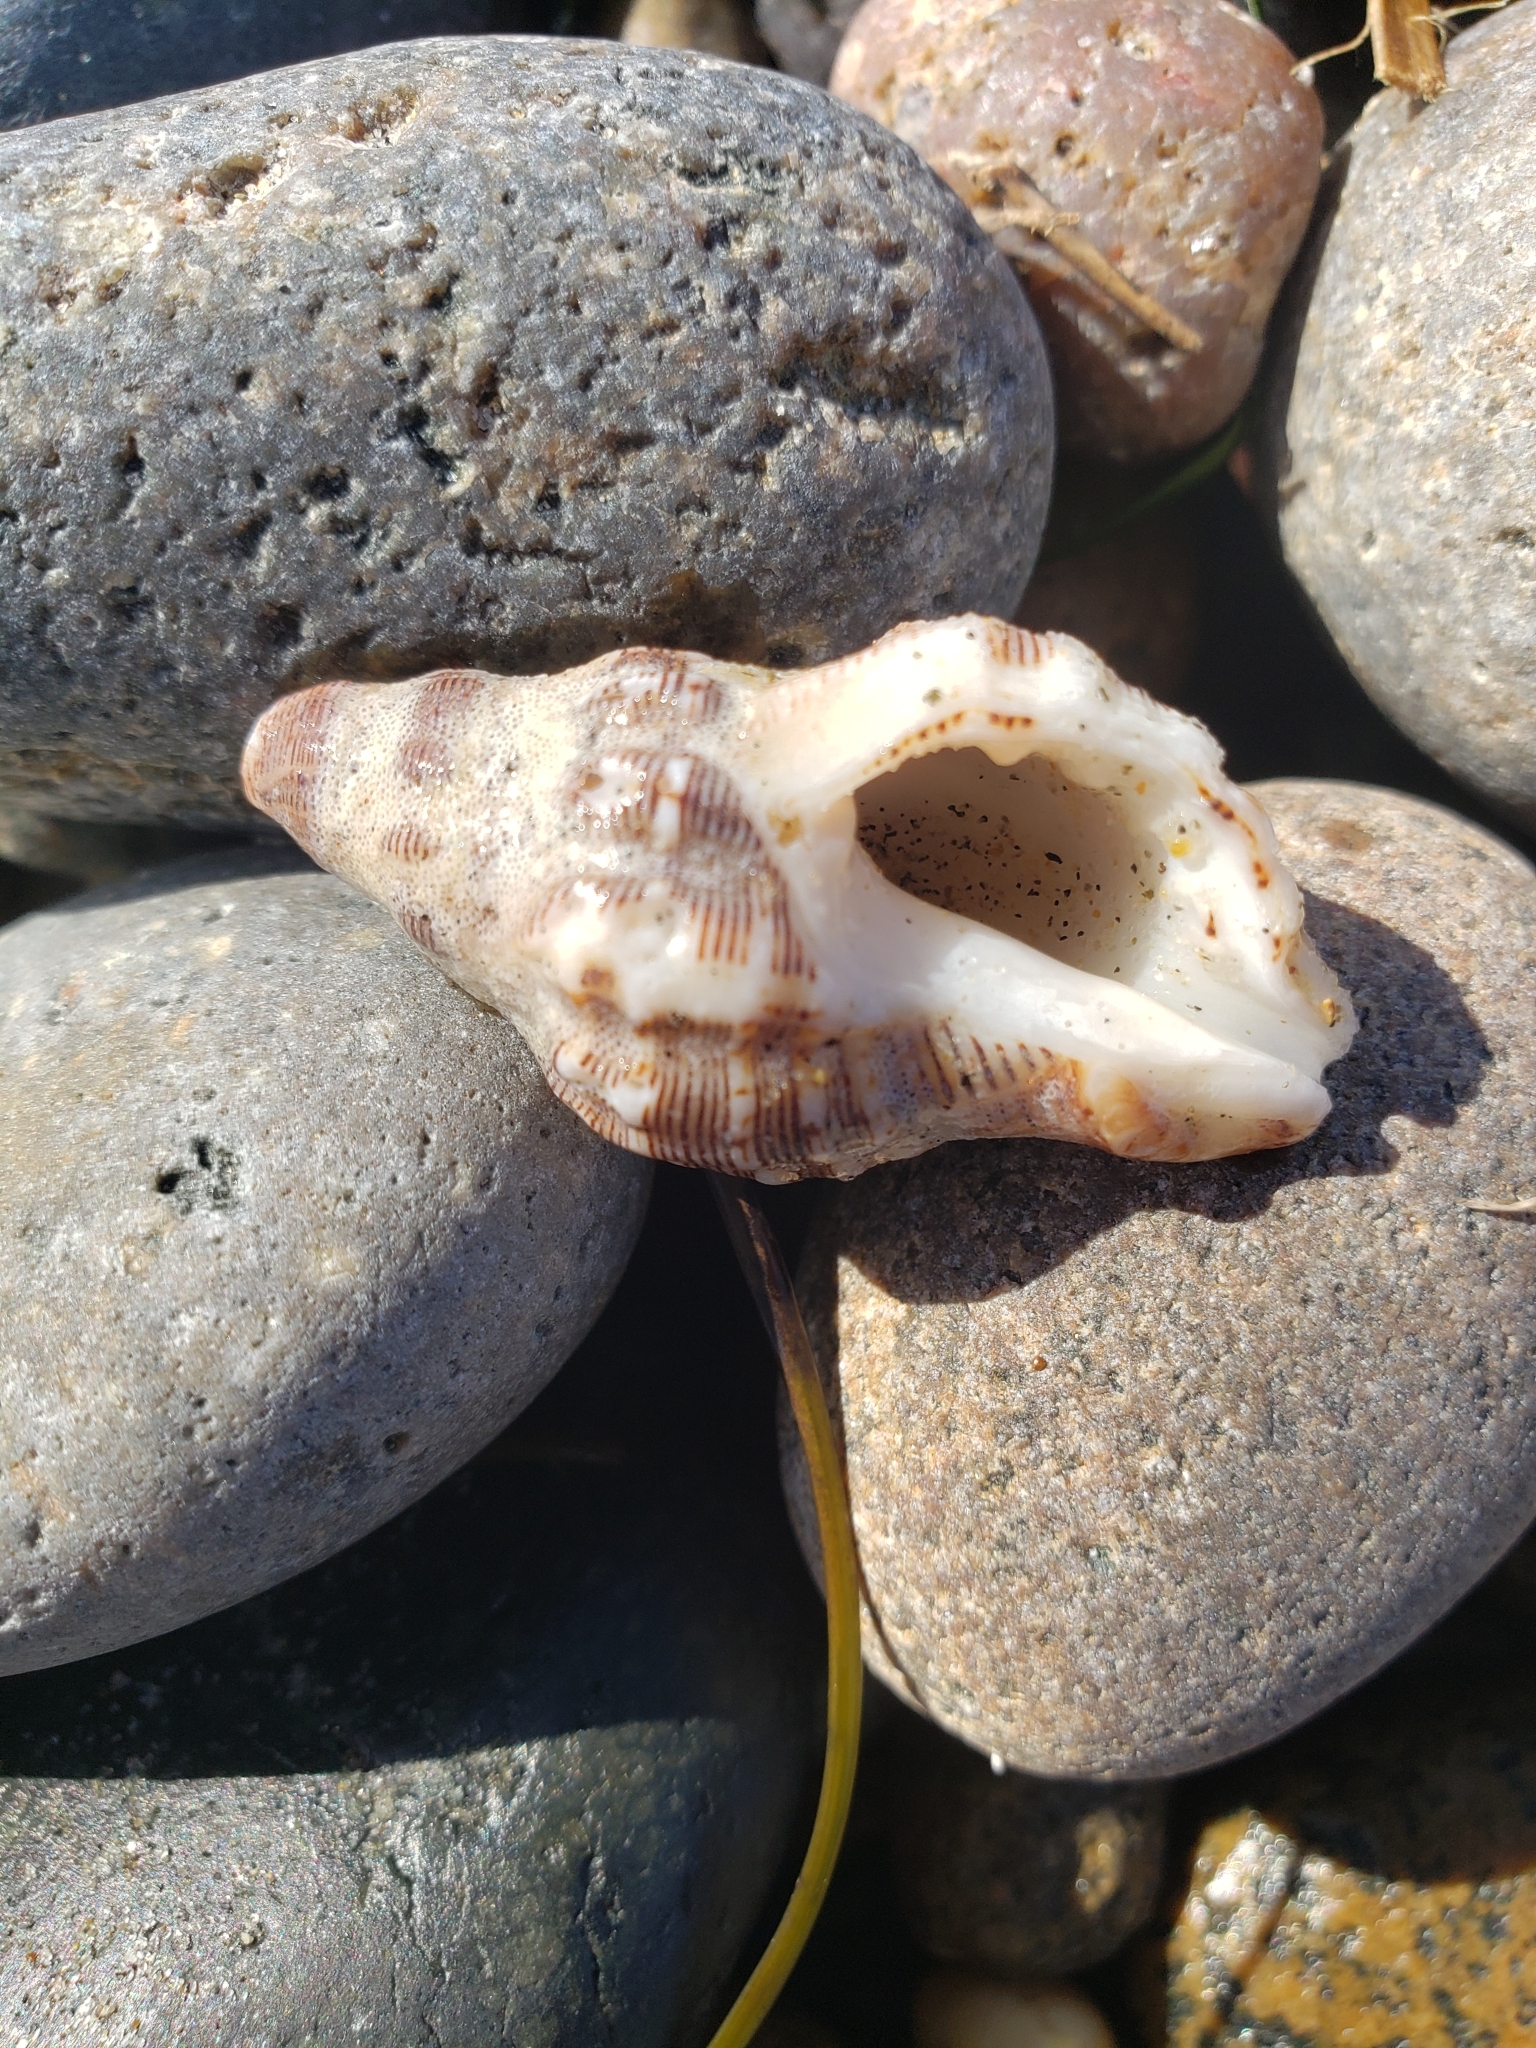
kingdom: Animalia
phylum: Mollusca
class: Gastropoda
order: Neogastropoda
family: Muricidae
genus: Roperia
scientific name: Roperia poulsoni
